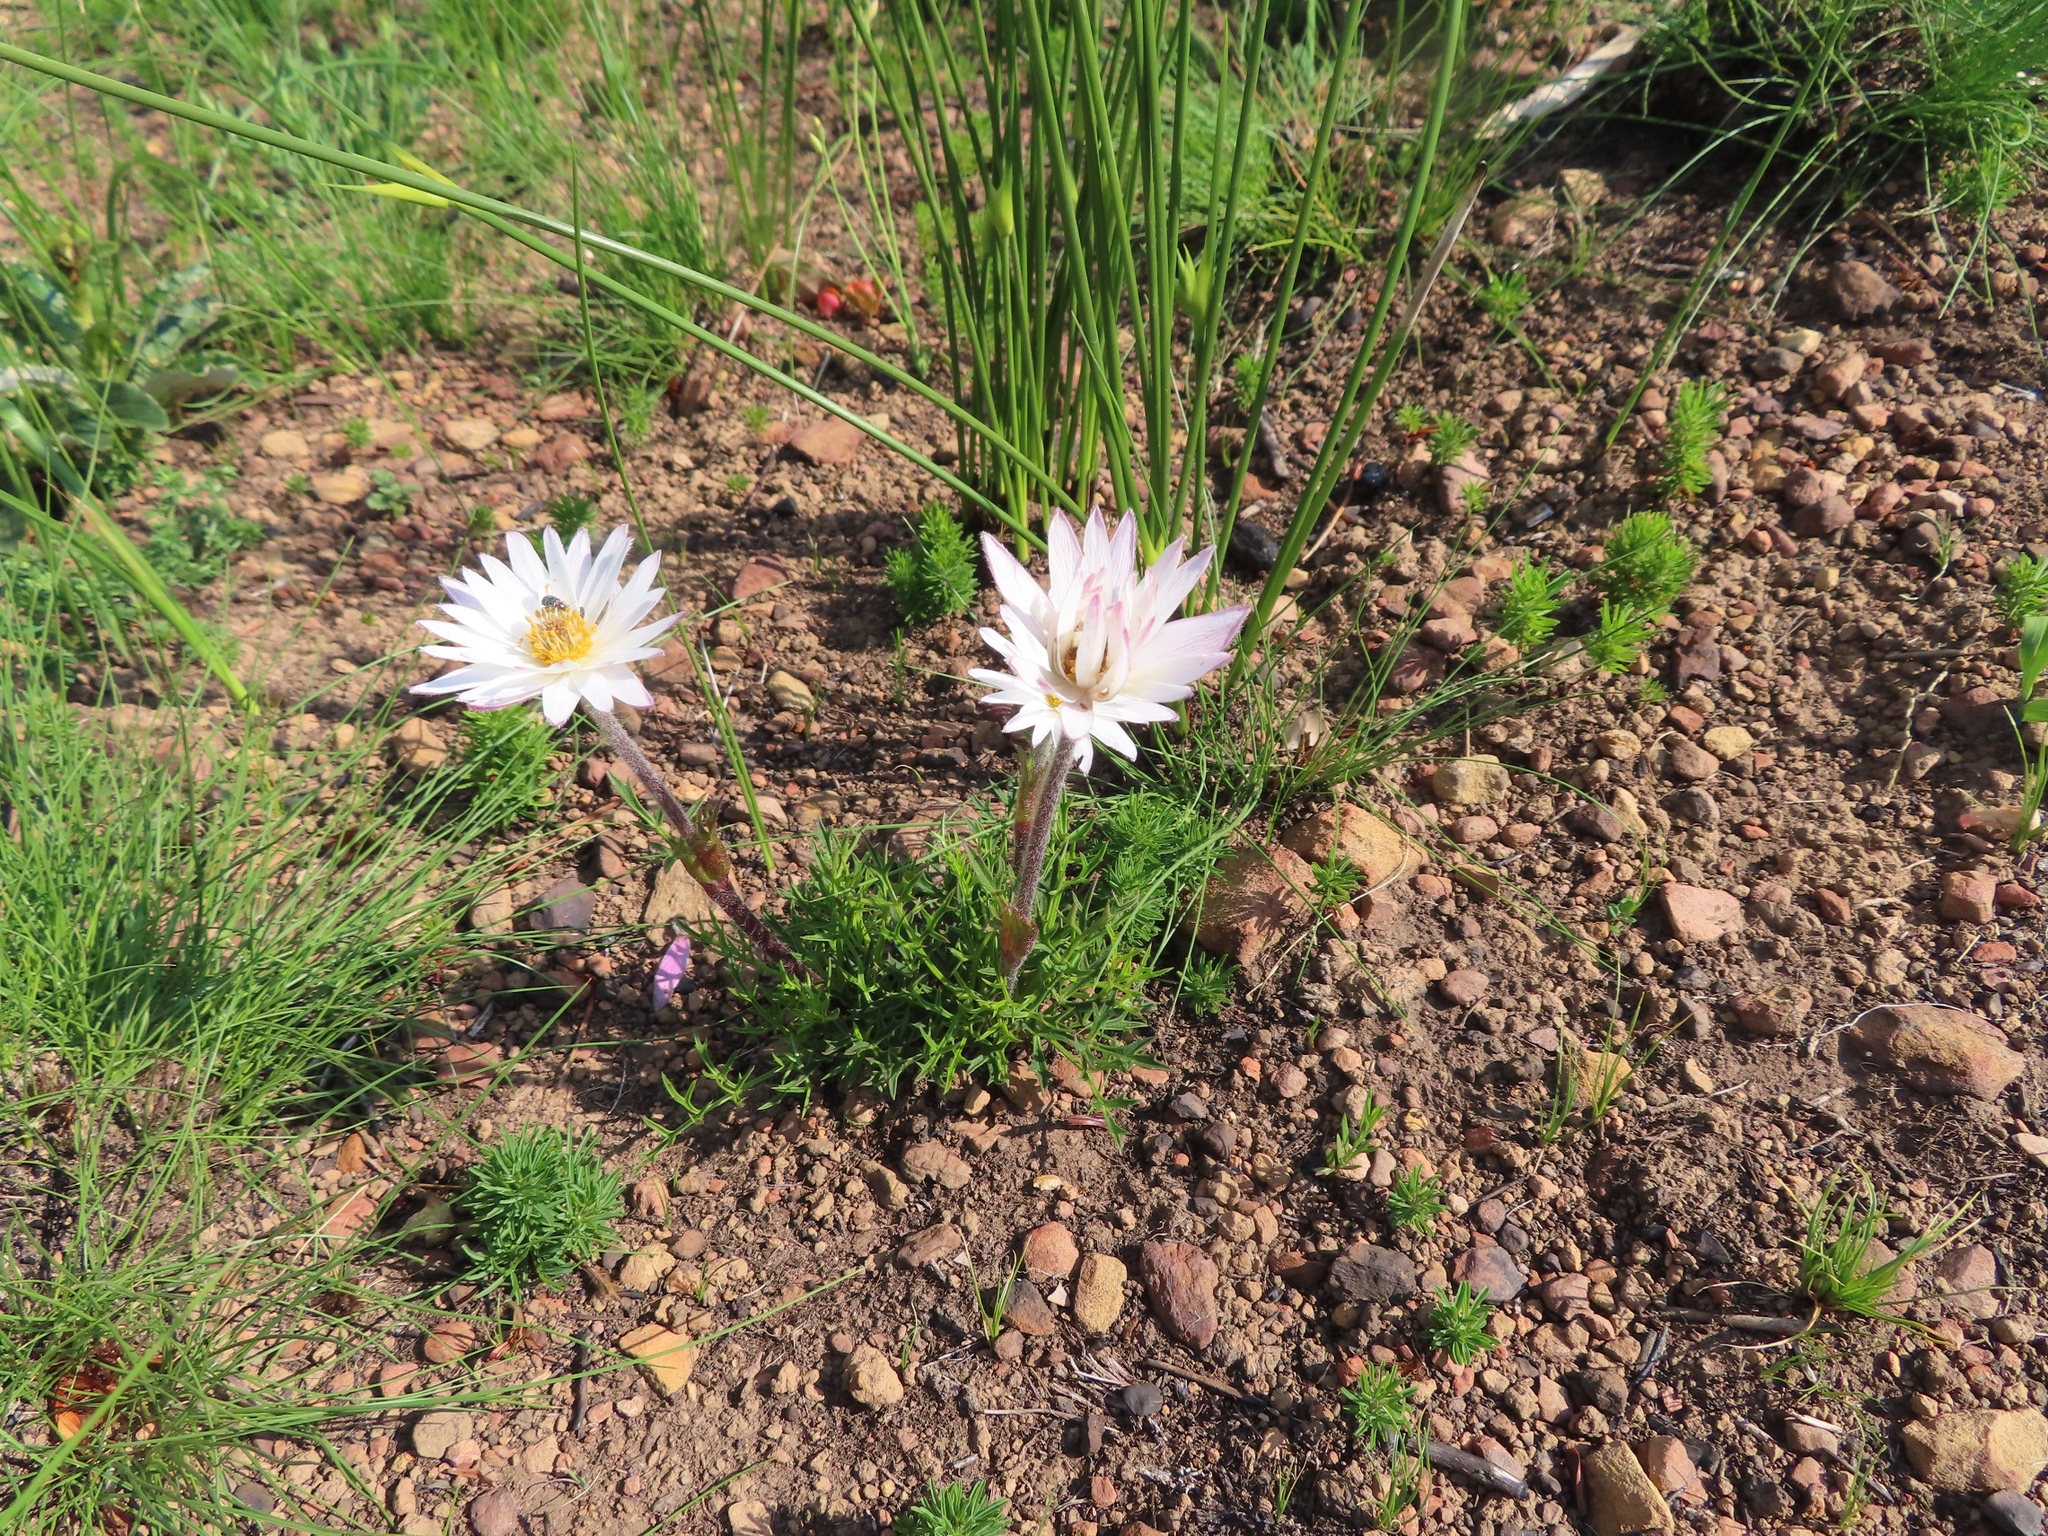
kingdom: Plantae
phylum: Tracheophyta
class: Magnoliopsida
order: Ranunculales
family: Ranunculaceae
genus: Knowltonia
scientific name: Knowltonia tenuifolia
